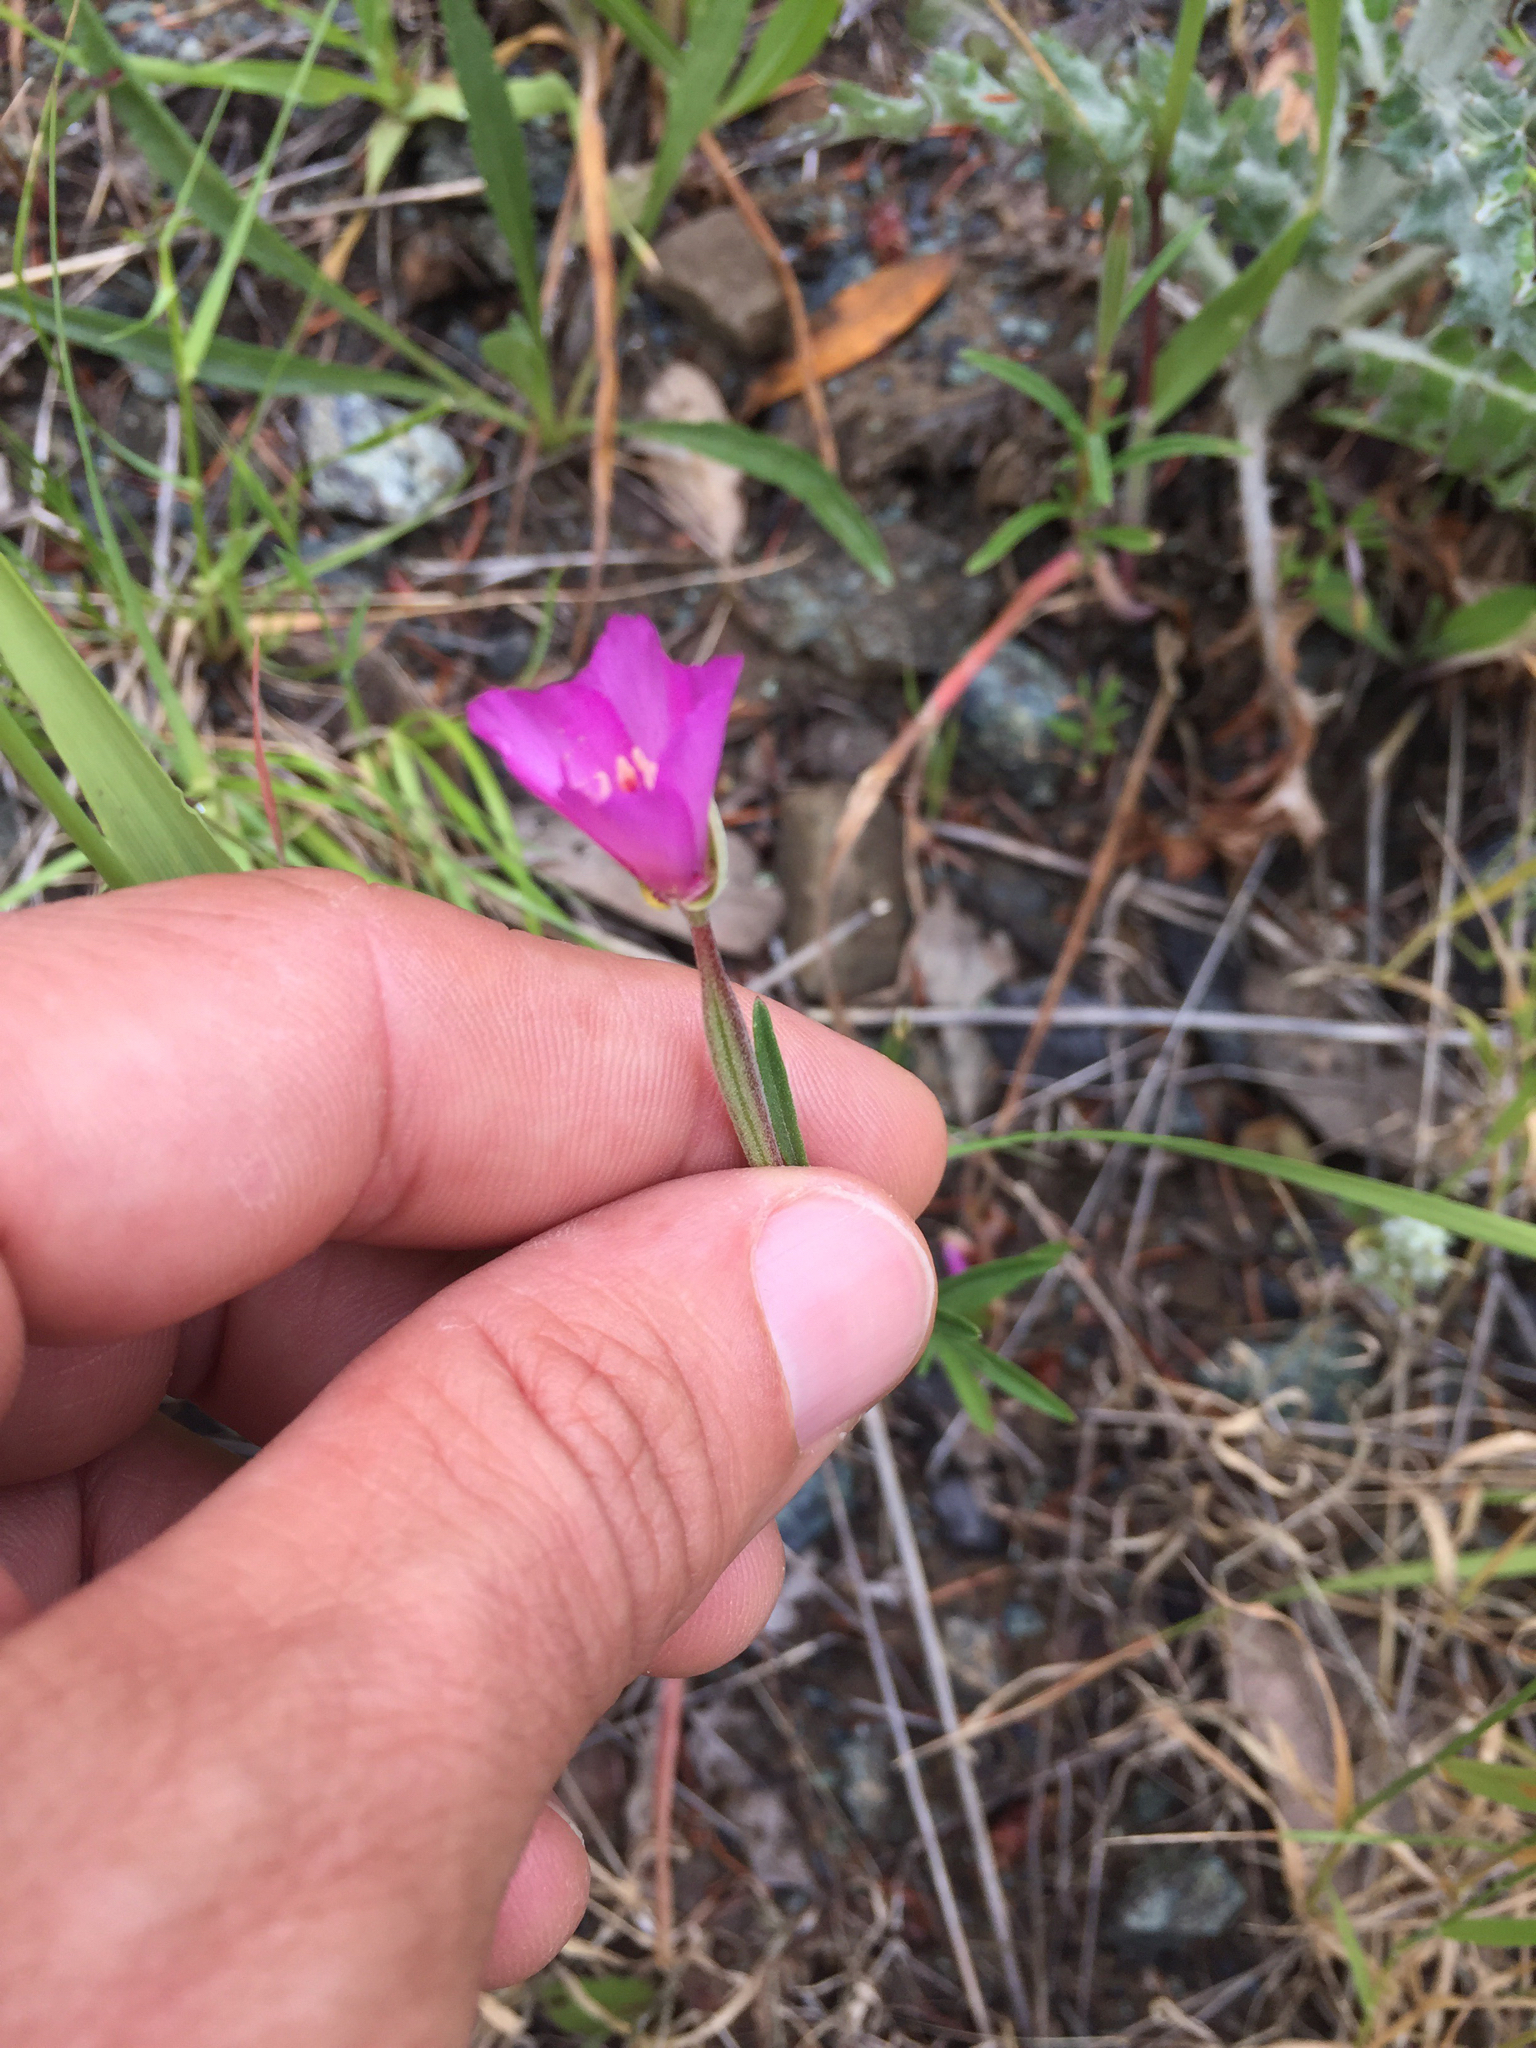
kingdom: Plantae
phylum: Tracheophyta
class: Magnoliopsida
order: Myrtales
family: Onagraceae
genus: Clarkia
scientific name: Clarkia gracilis
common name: Graceful clarkia
